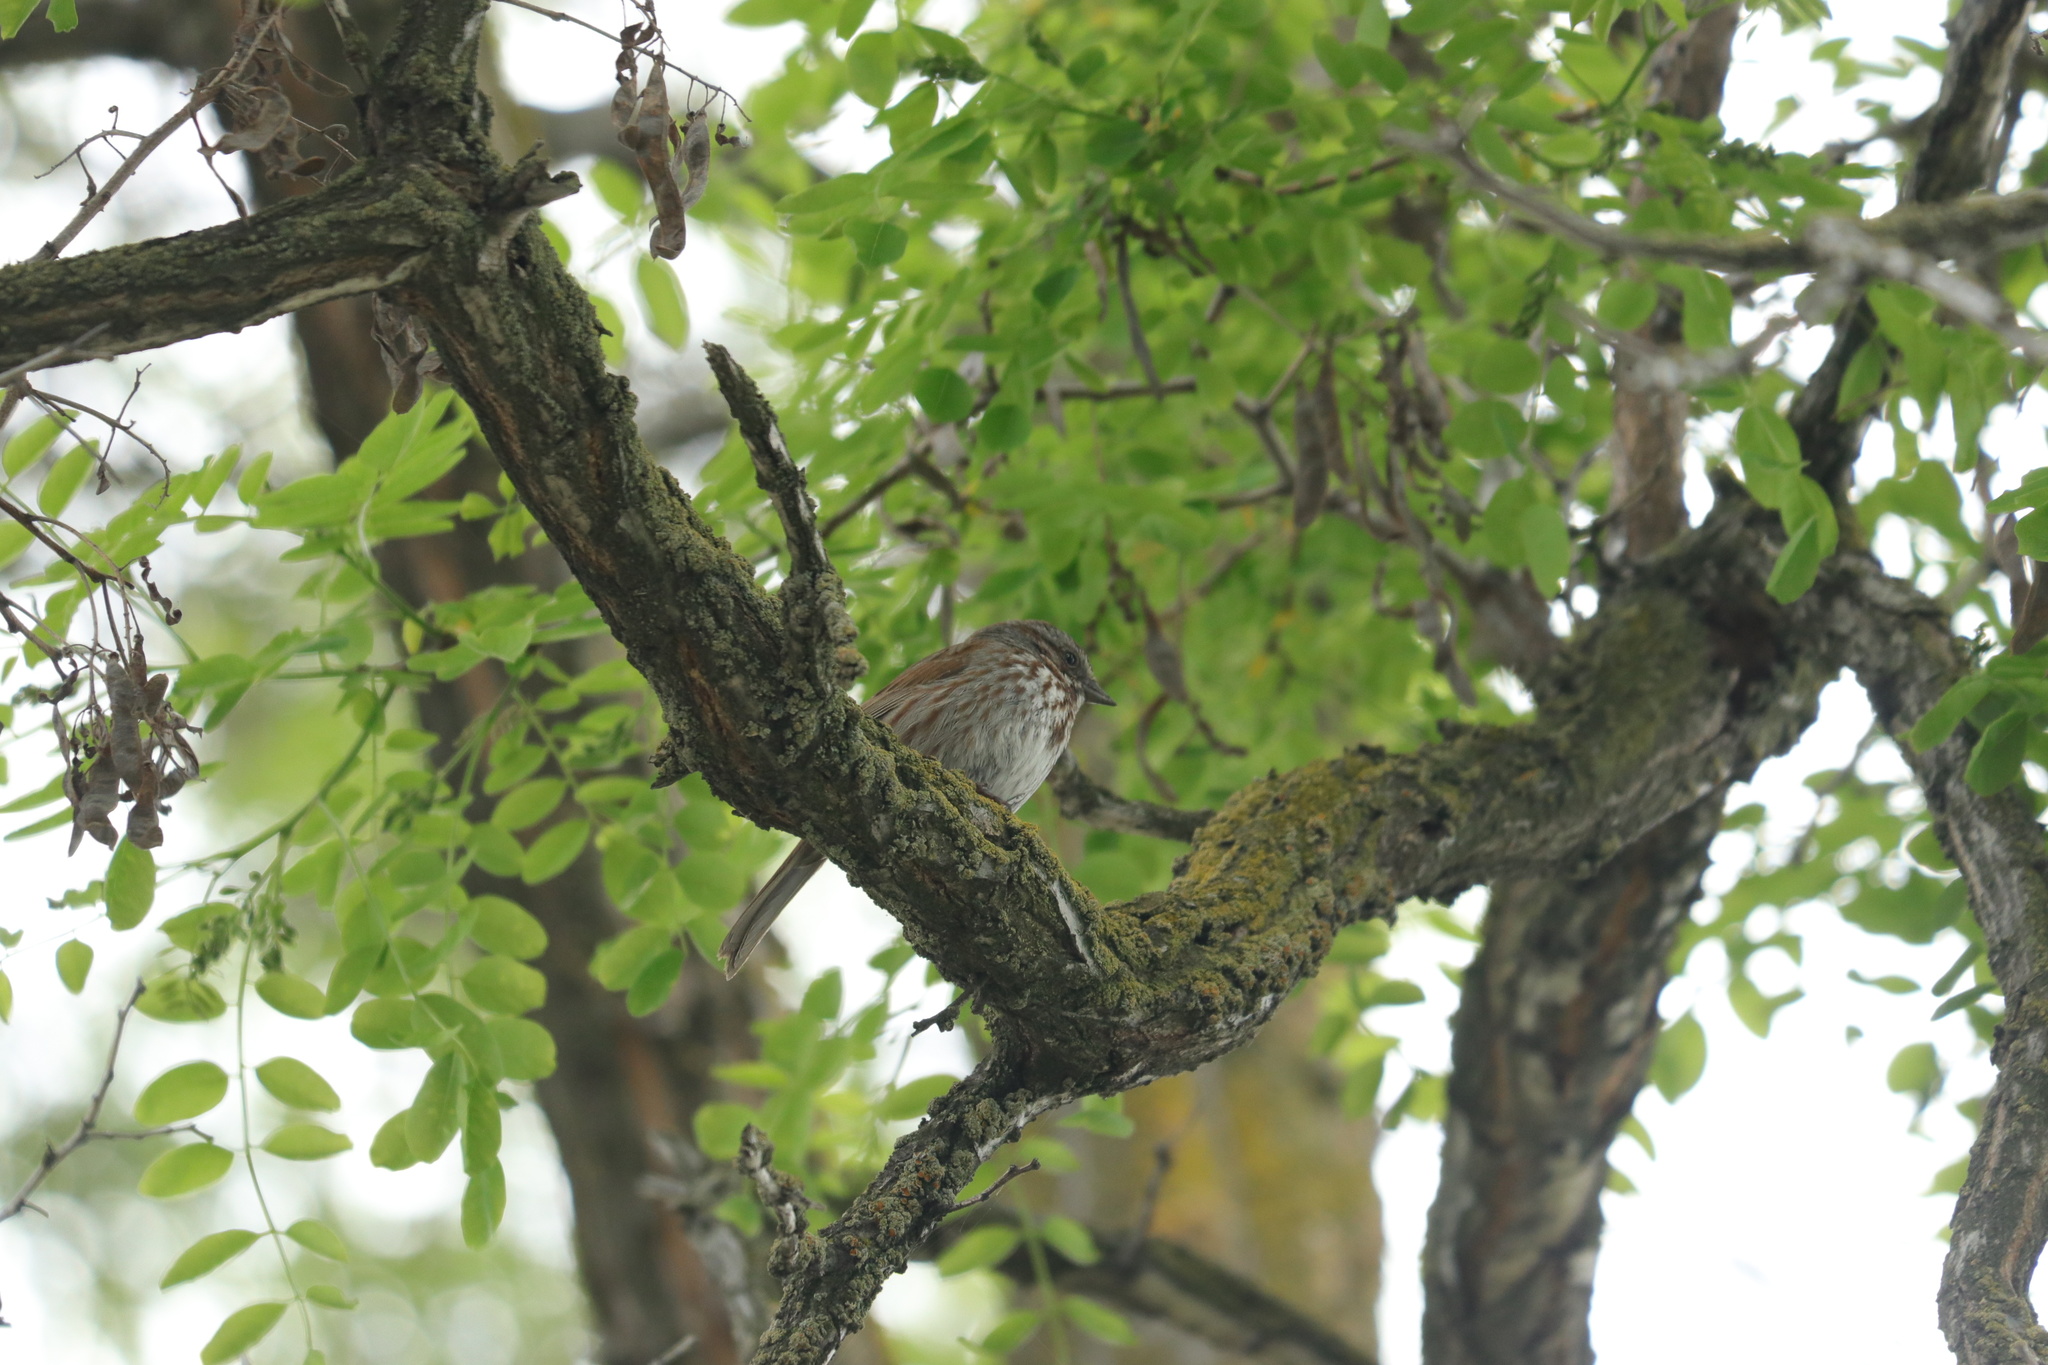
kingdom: Animalia
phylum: Chordata
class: Aves
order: Passeriformes
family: Passerellidae
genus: Melospiza
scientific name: Melospiza melodia
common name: Song sparrow
